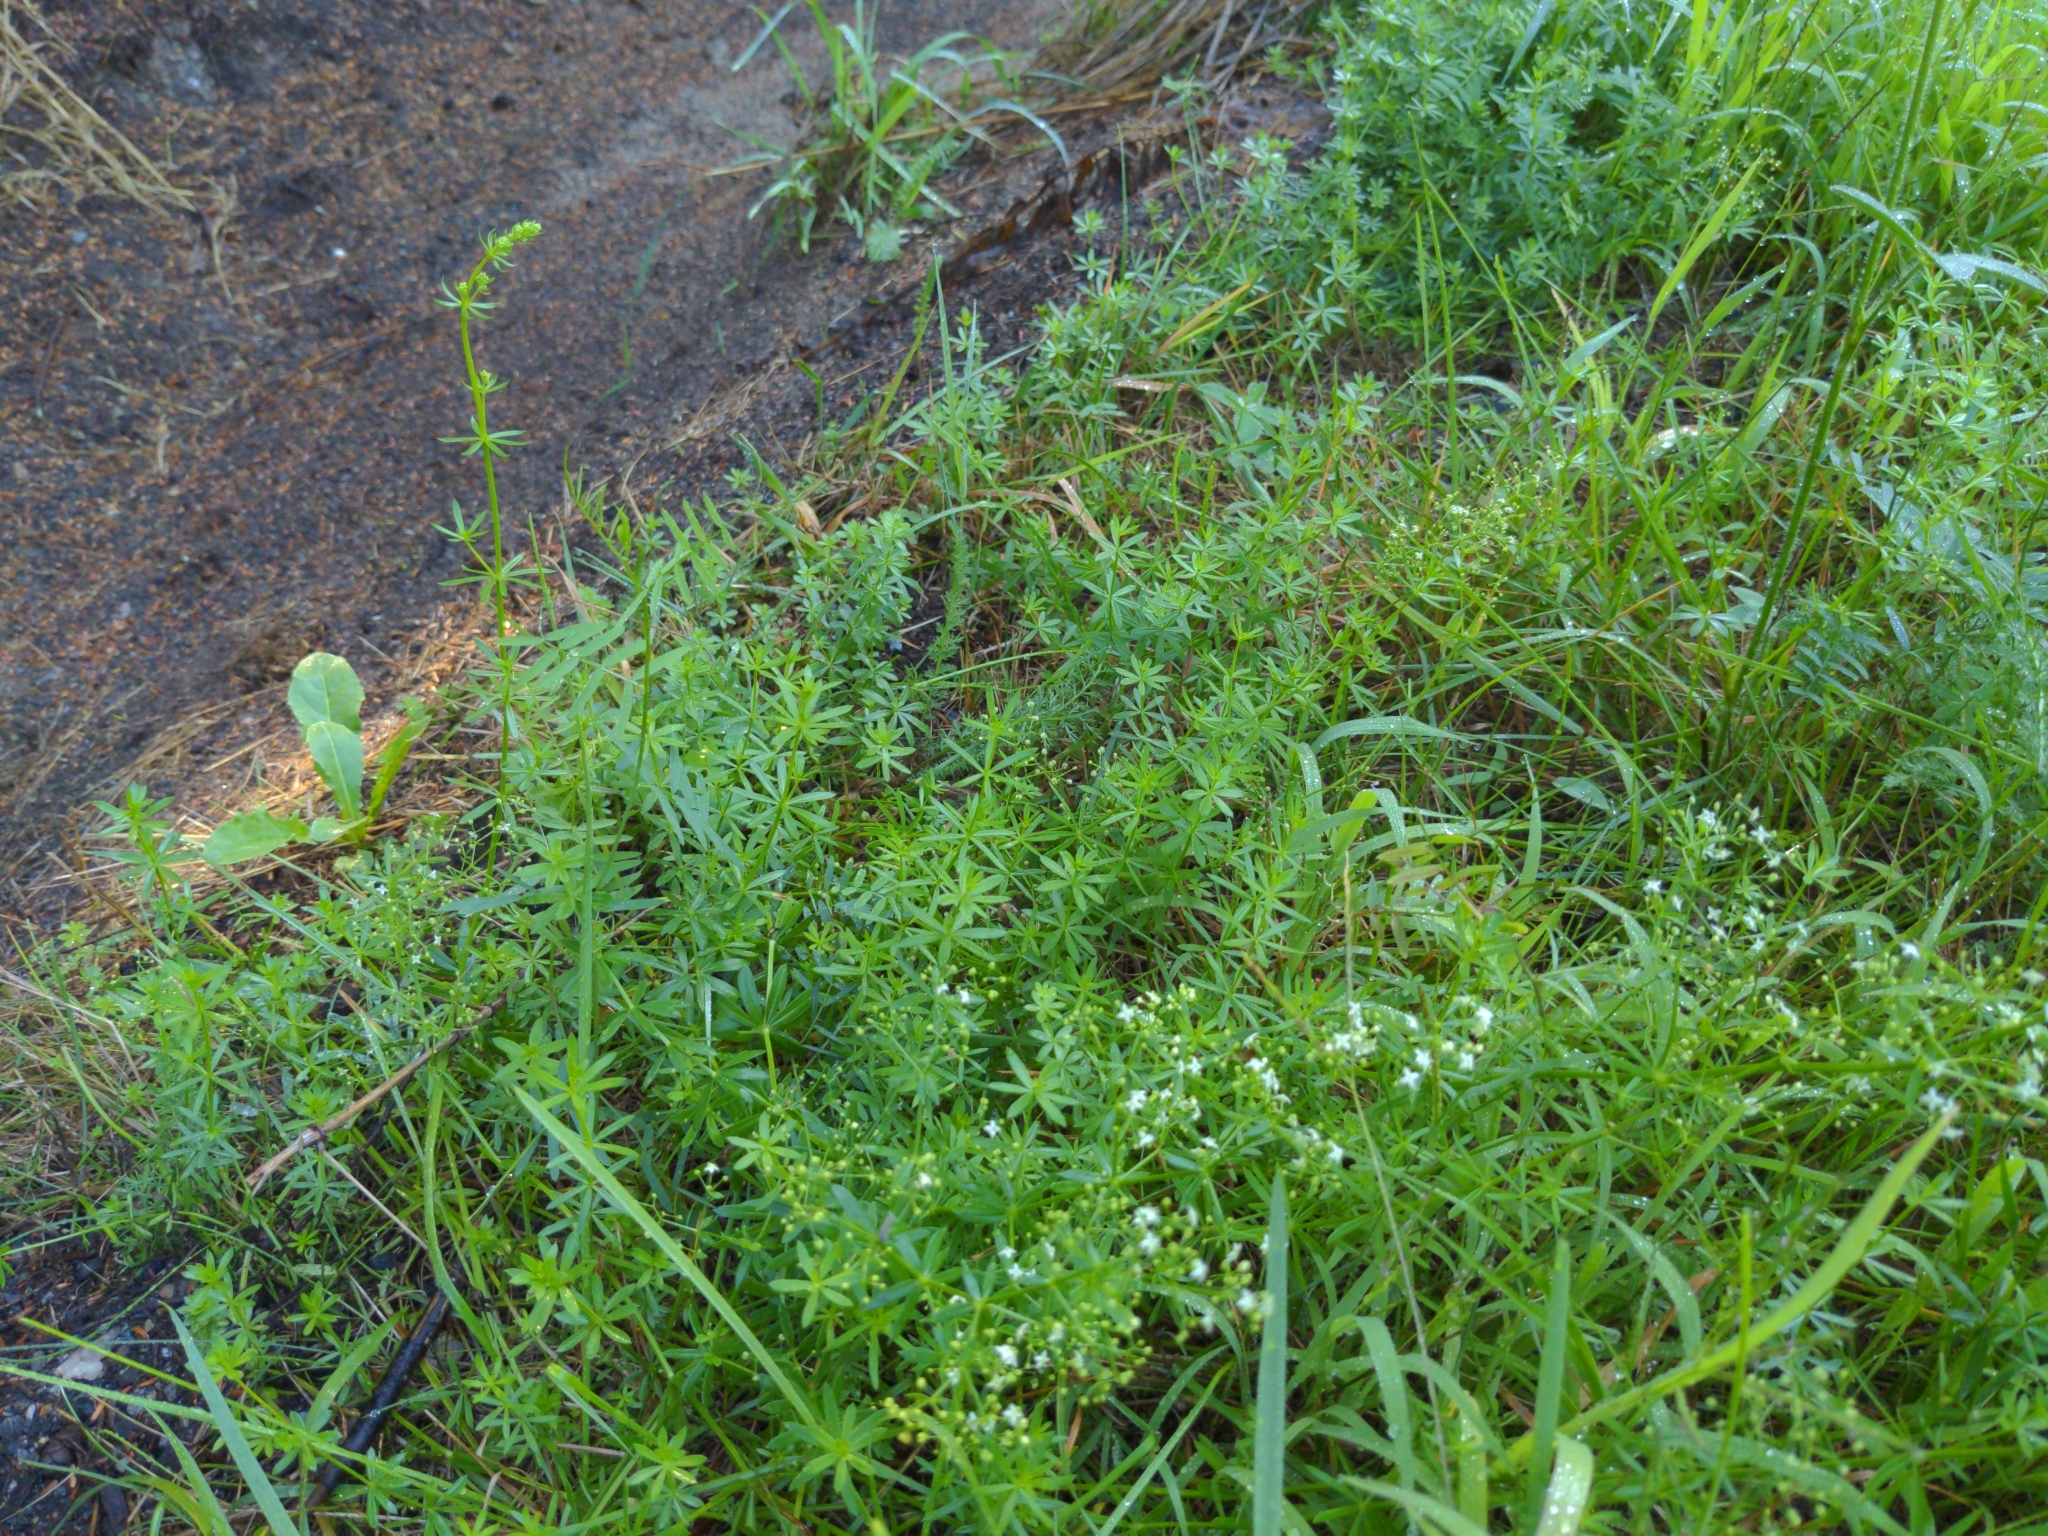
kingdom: Plantae
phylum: Tracheophyta
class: Magnoliopsida
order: Gentianales
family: Rubiaceae
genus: Galium
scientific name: Galium mollugo
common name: Hedge bedstraw
